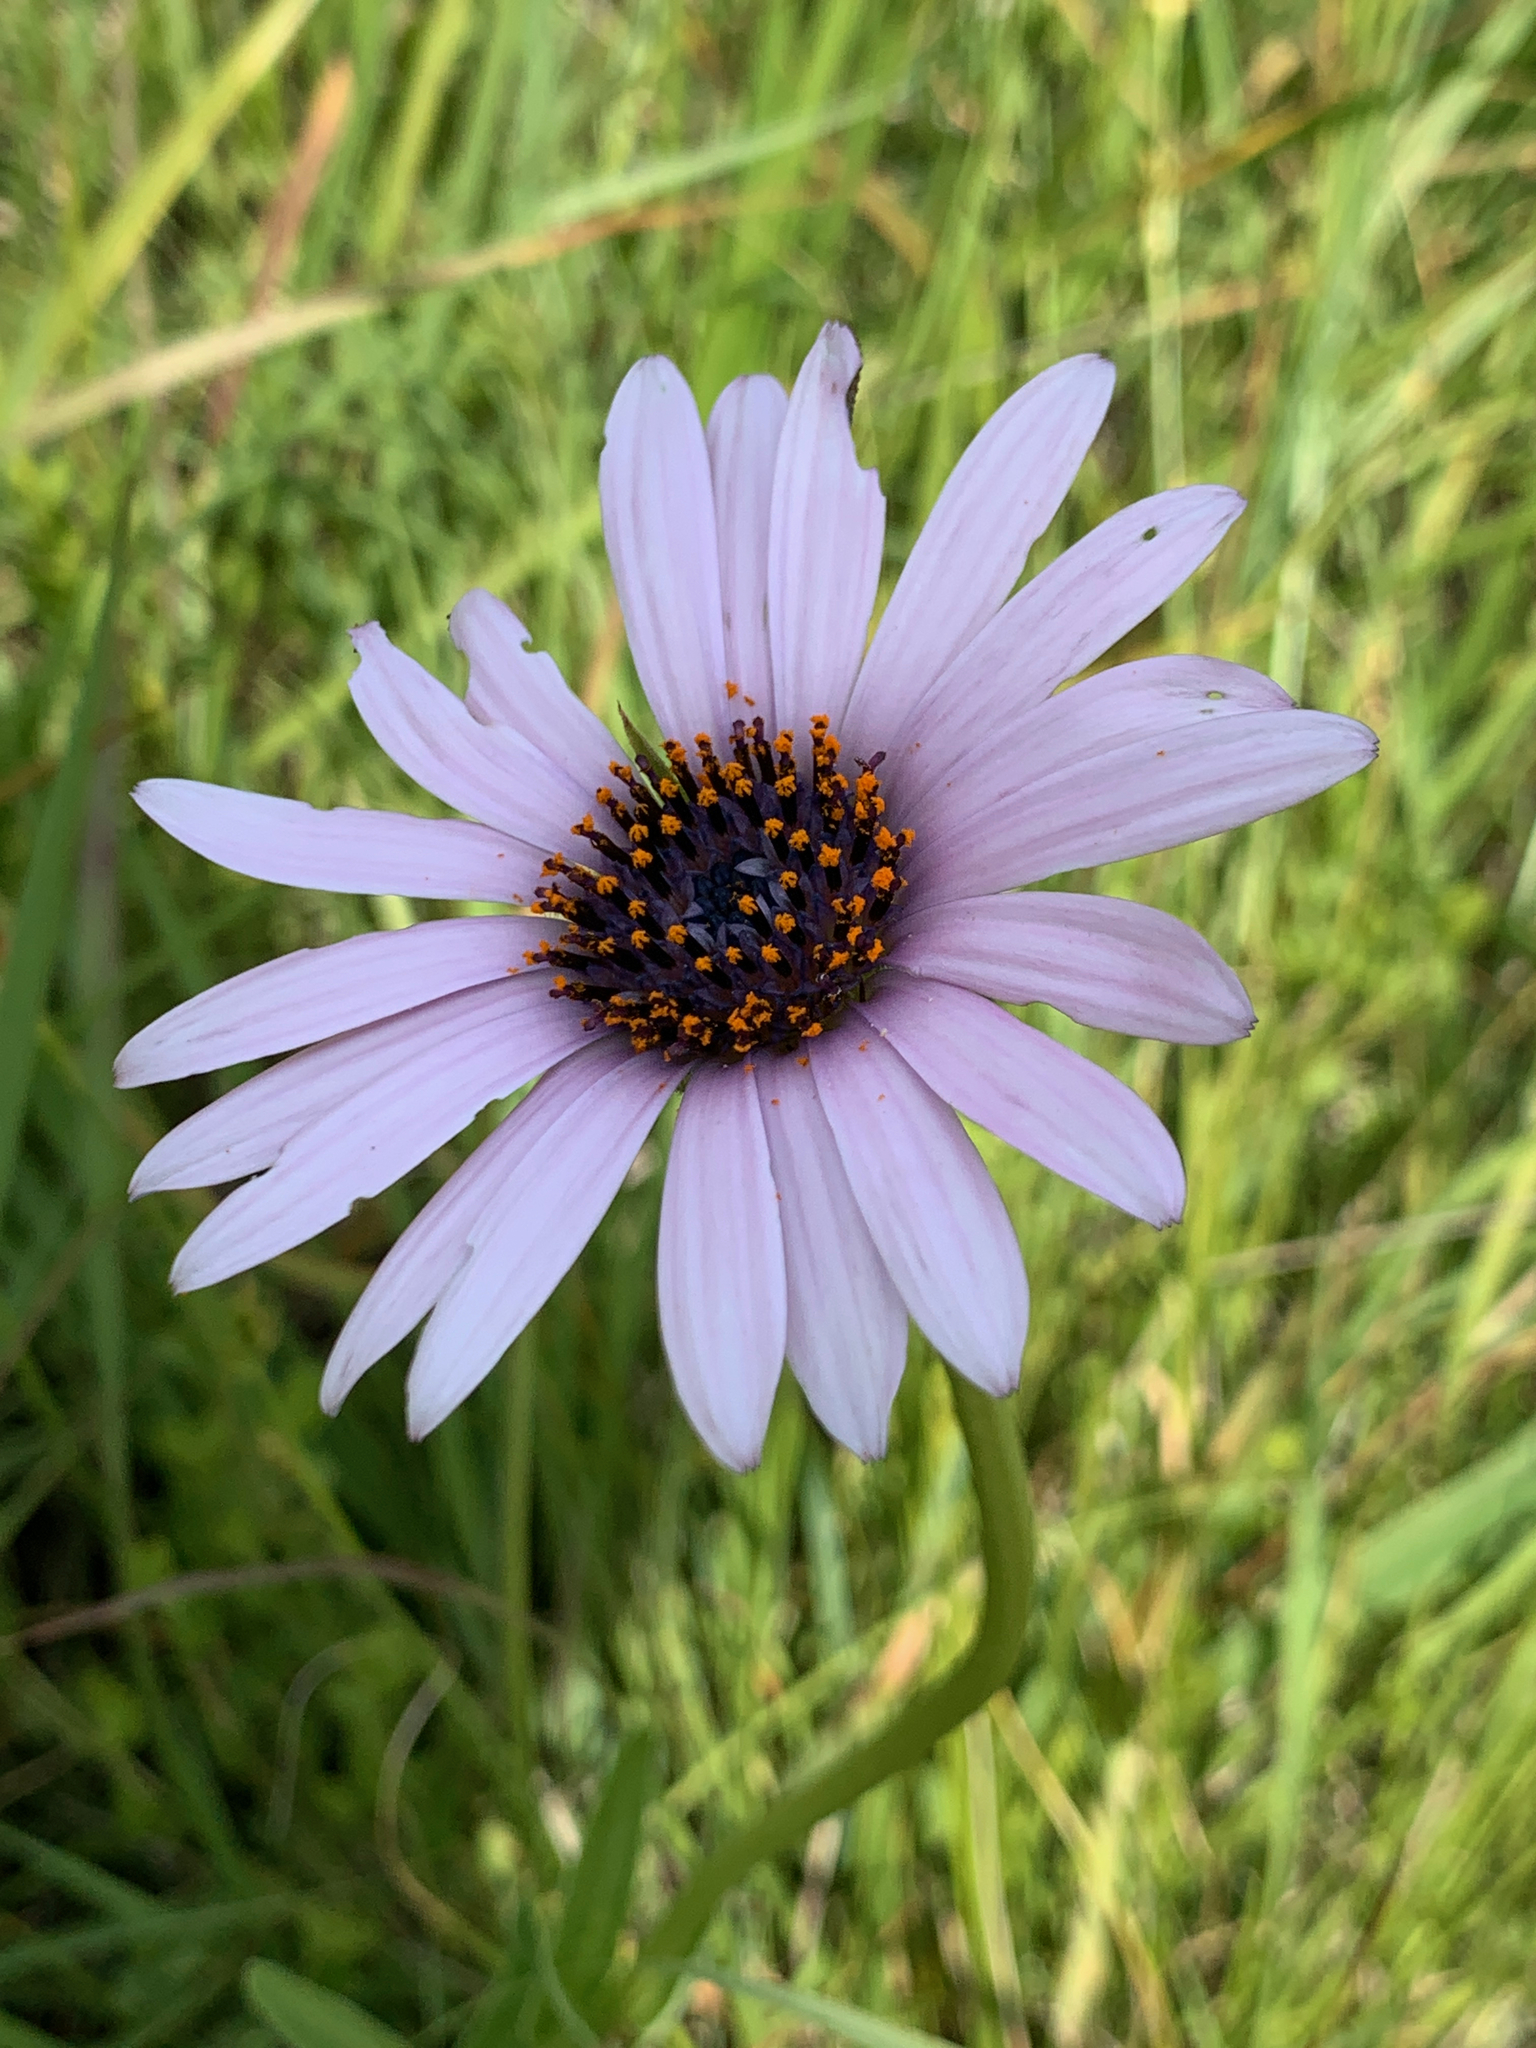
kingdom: Plantae
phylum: Tracheophyta
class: Magnoliopsida
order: Asterales
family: Asteraceae
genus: Dimorphotheca
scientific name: Dimorphotheca spectabilis
